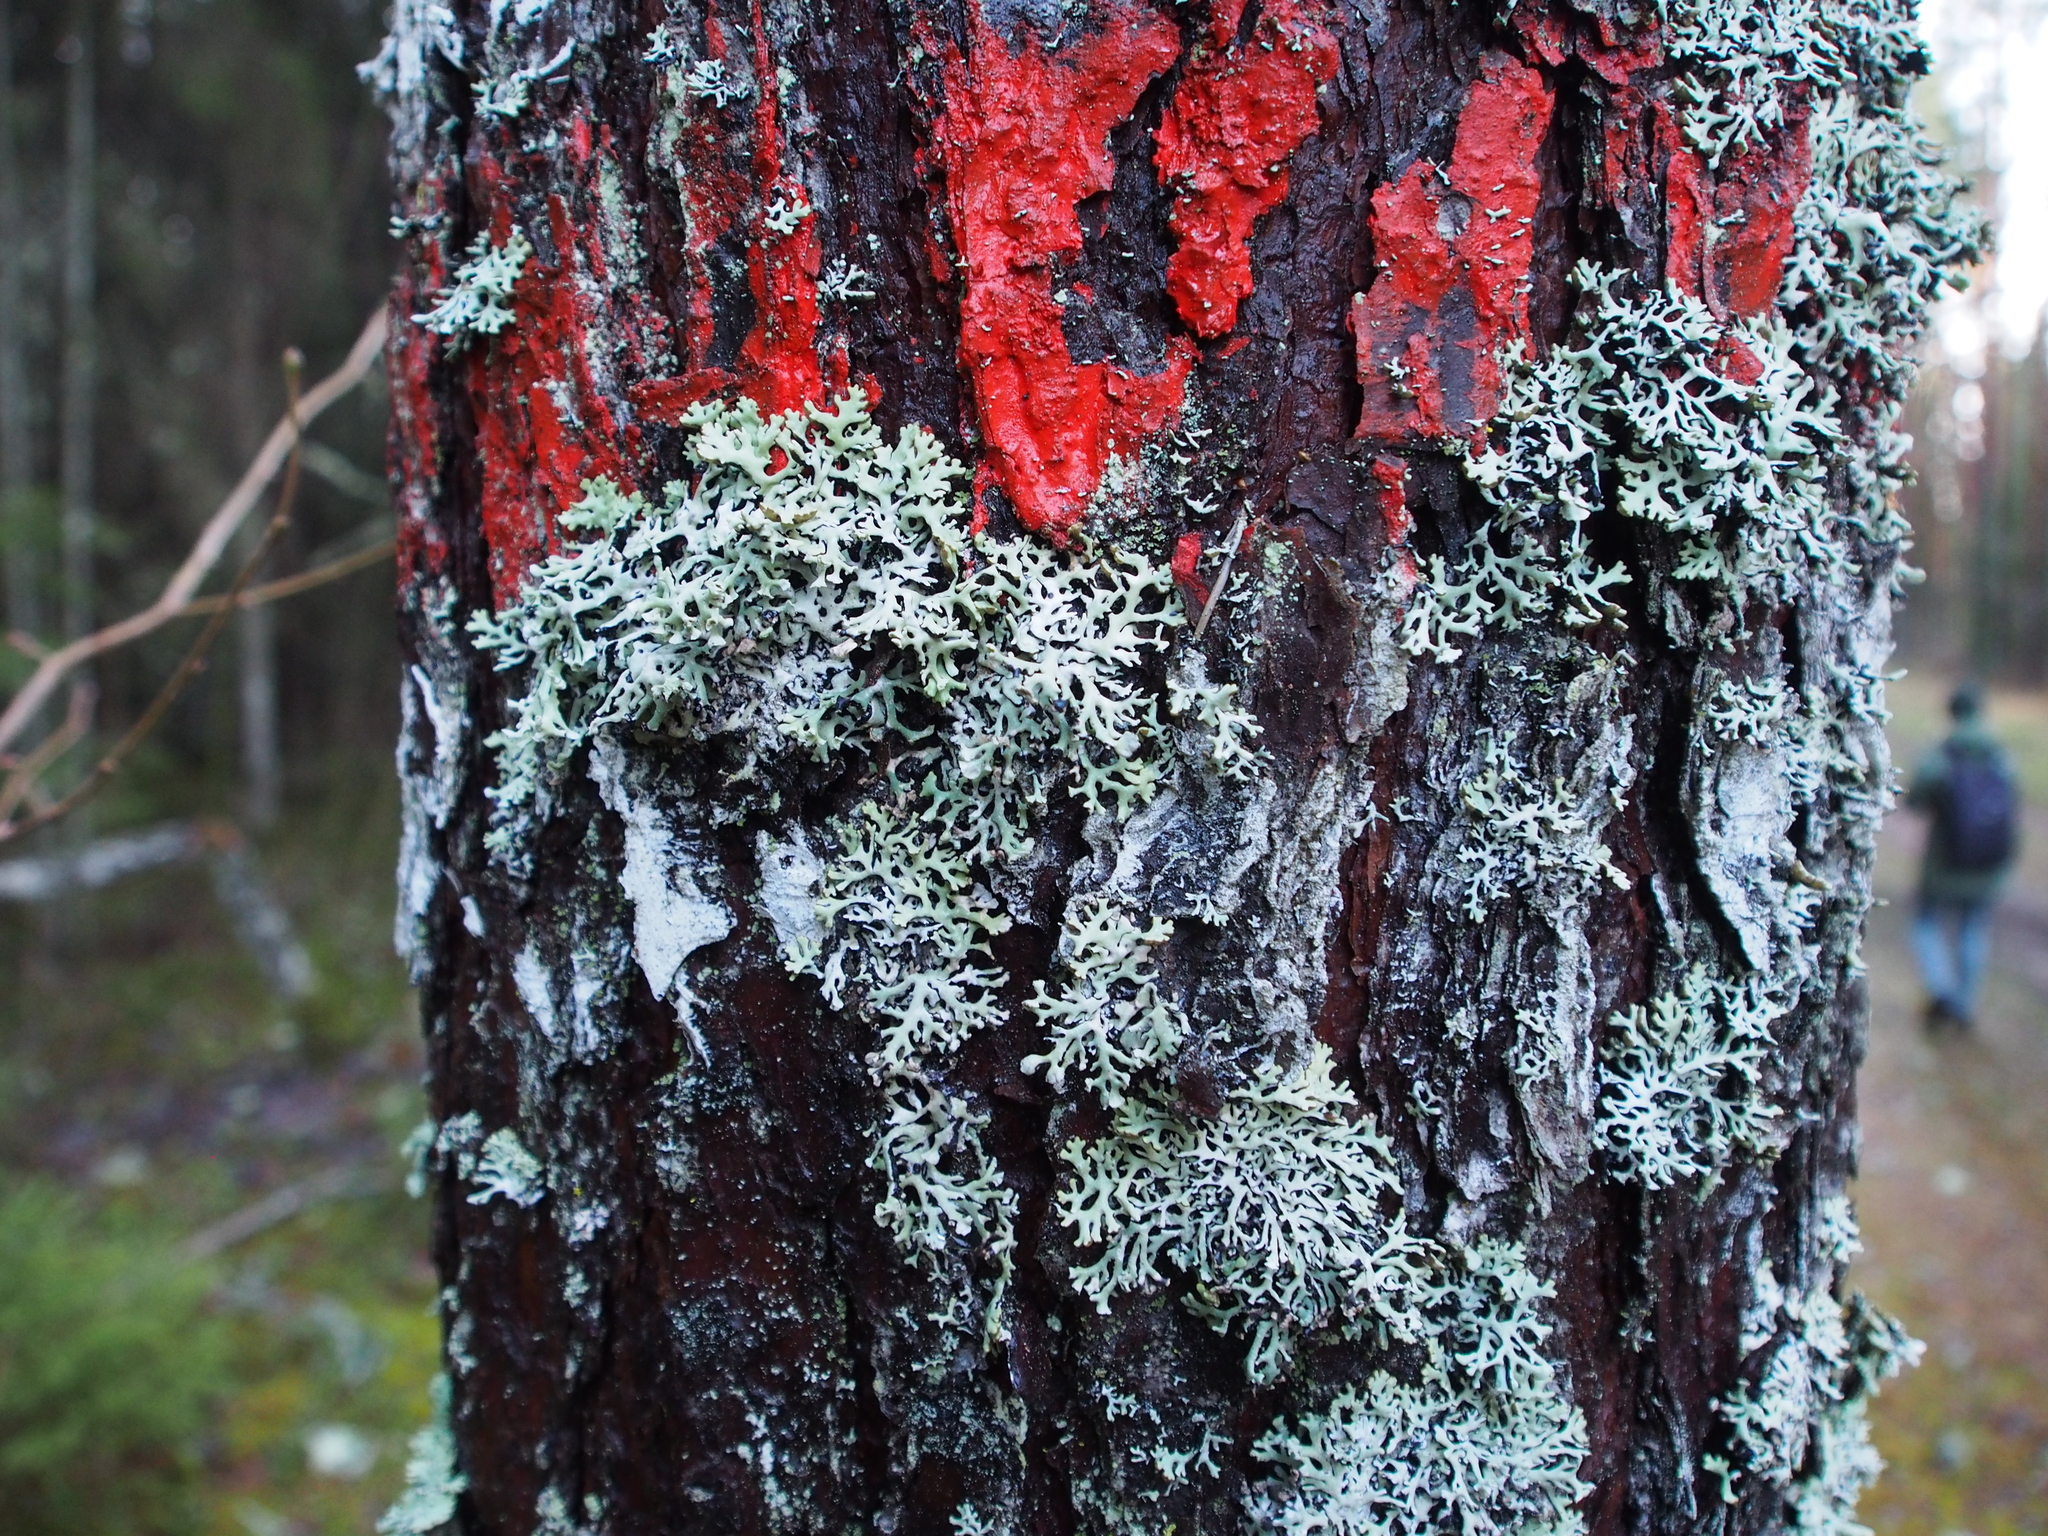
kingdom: Fungi
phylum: Ascomycota
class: Lecanoromycetes
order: Lecanorales
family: Parmeliaceae
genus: Hypogymnia
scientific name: Hypogymnia physodes
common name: Dark crottle
